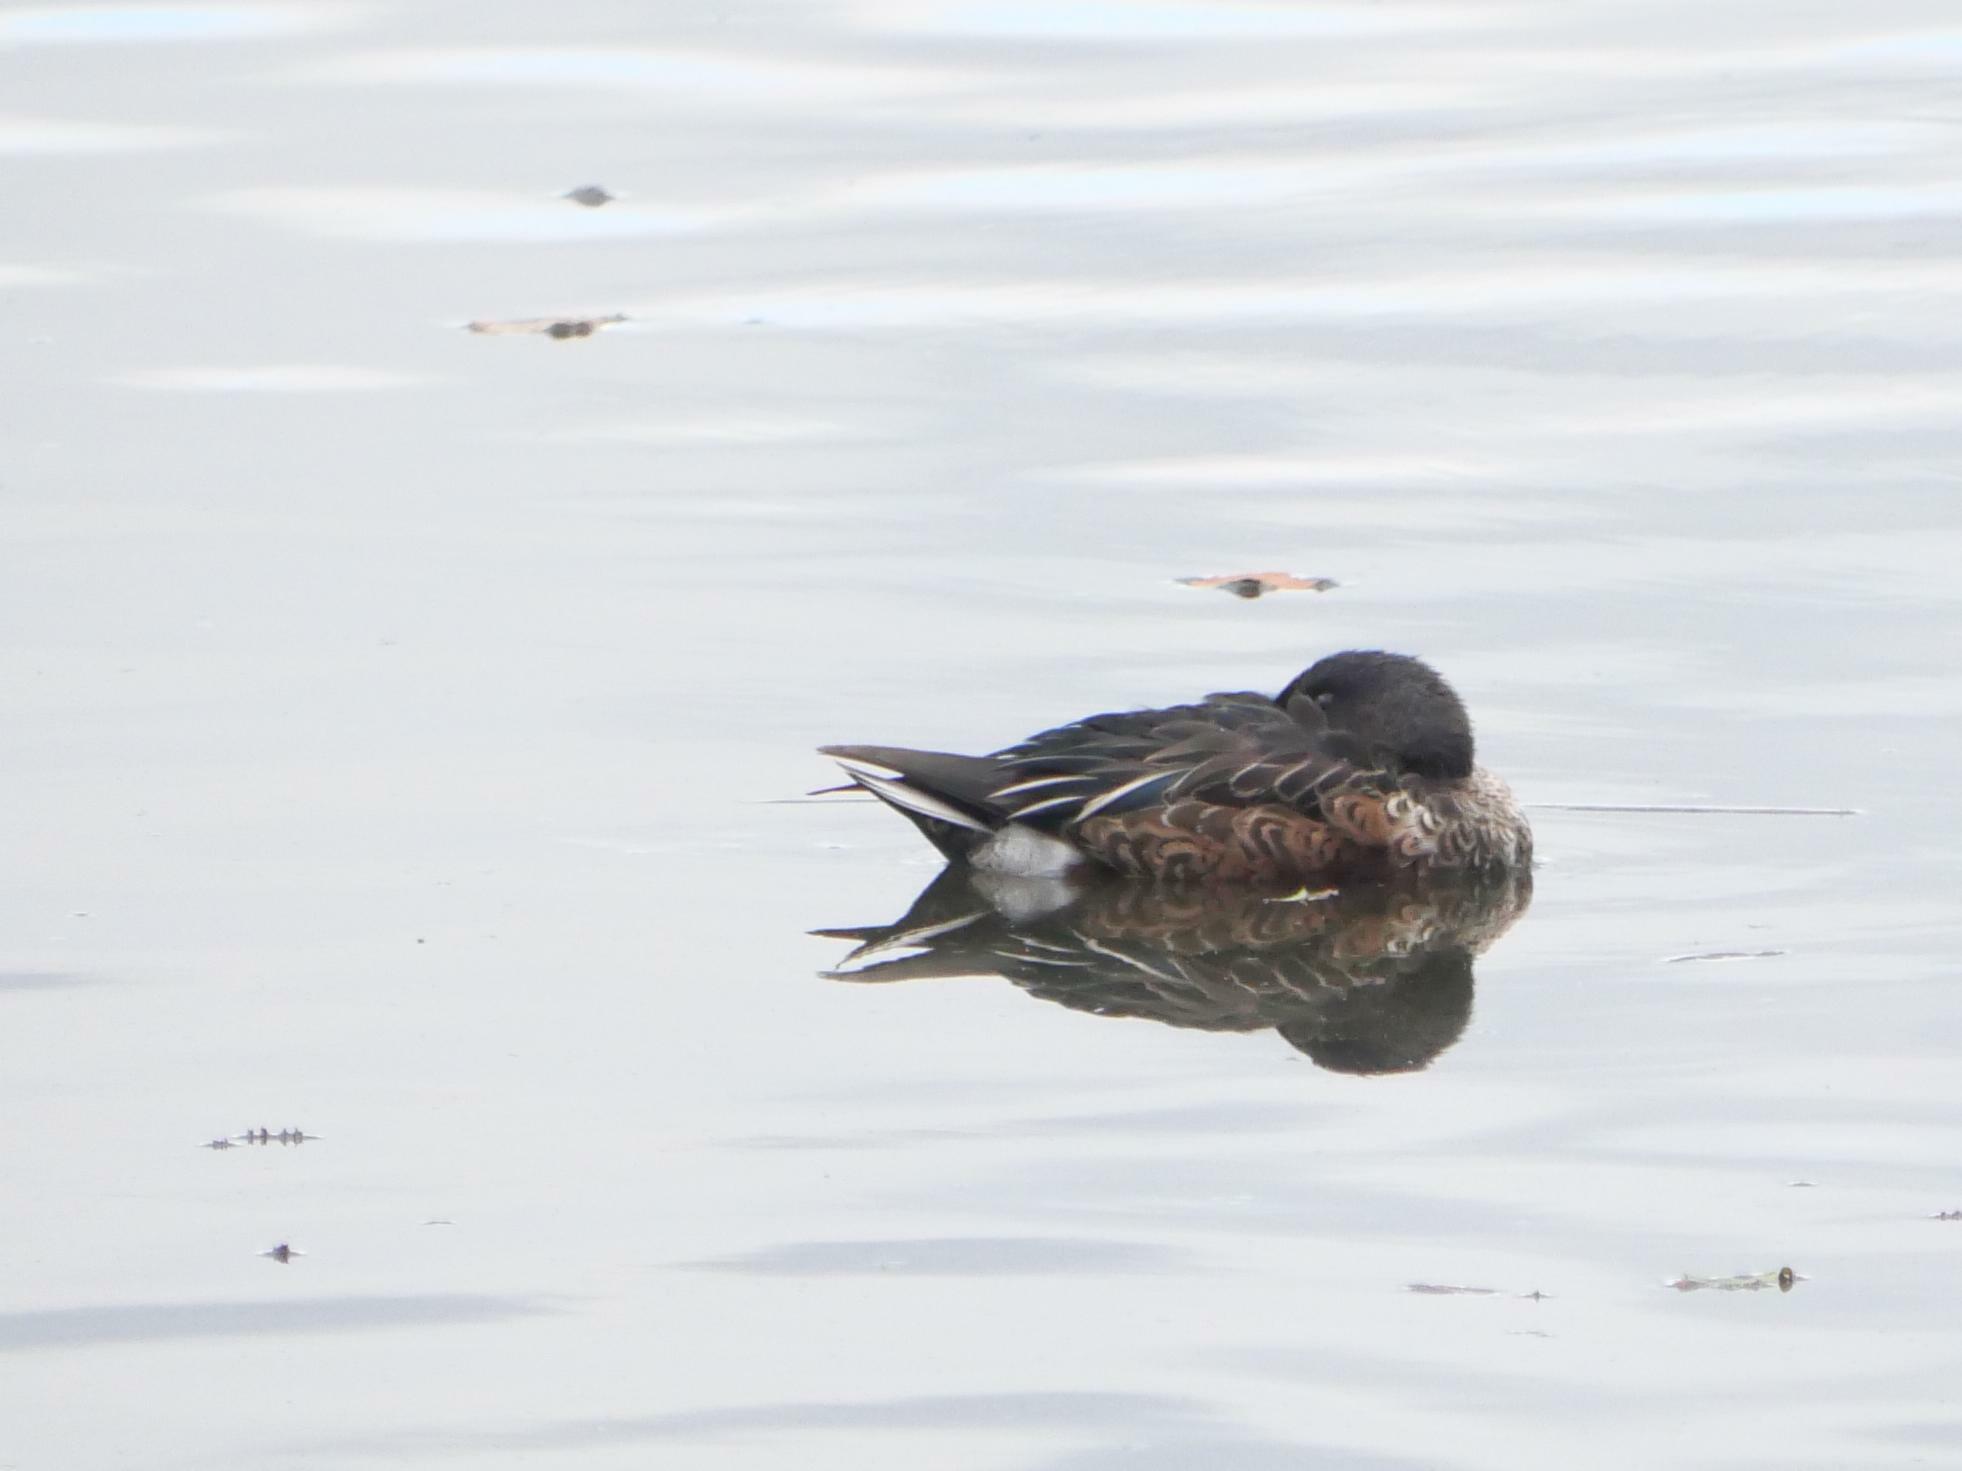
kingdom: Animalia
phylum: Chordata
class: Aves
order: Anseriformes
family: Anatidae
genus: Spatula
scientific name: Spatula clypeata
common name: Northern shoveler
